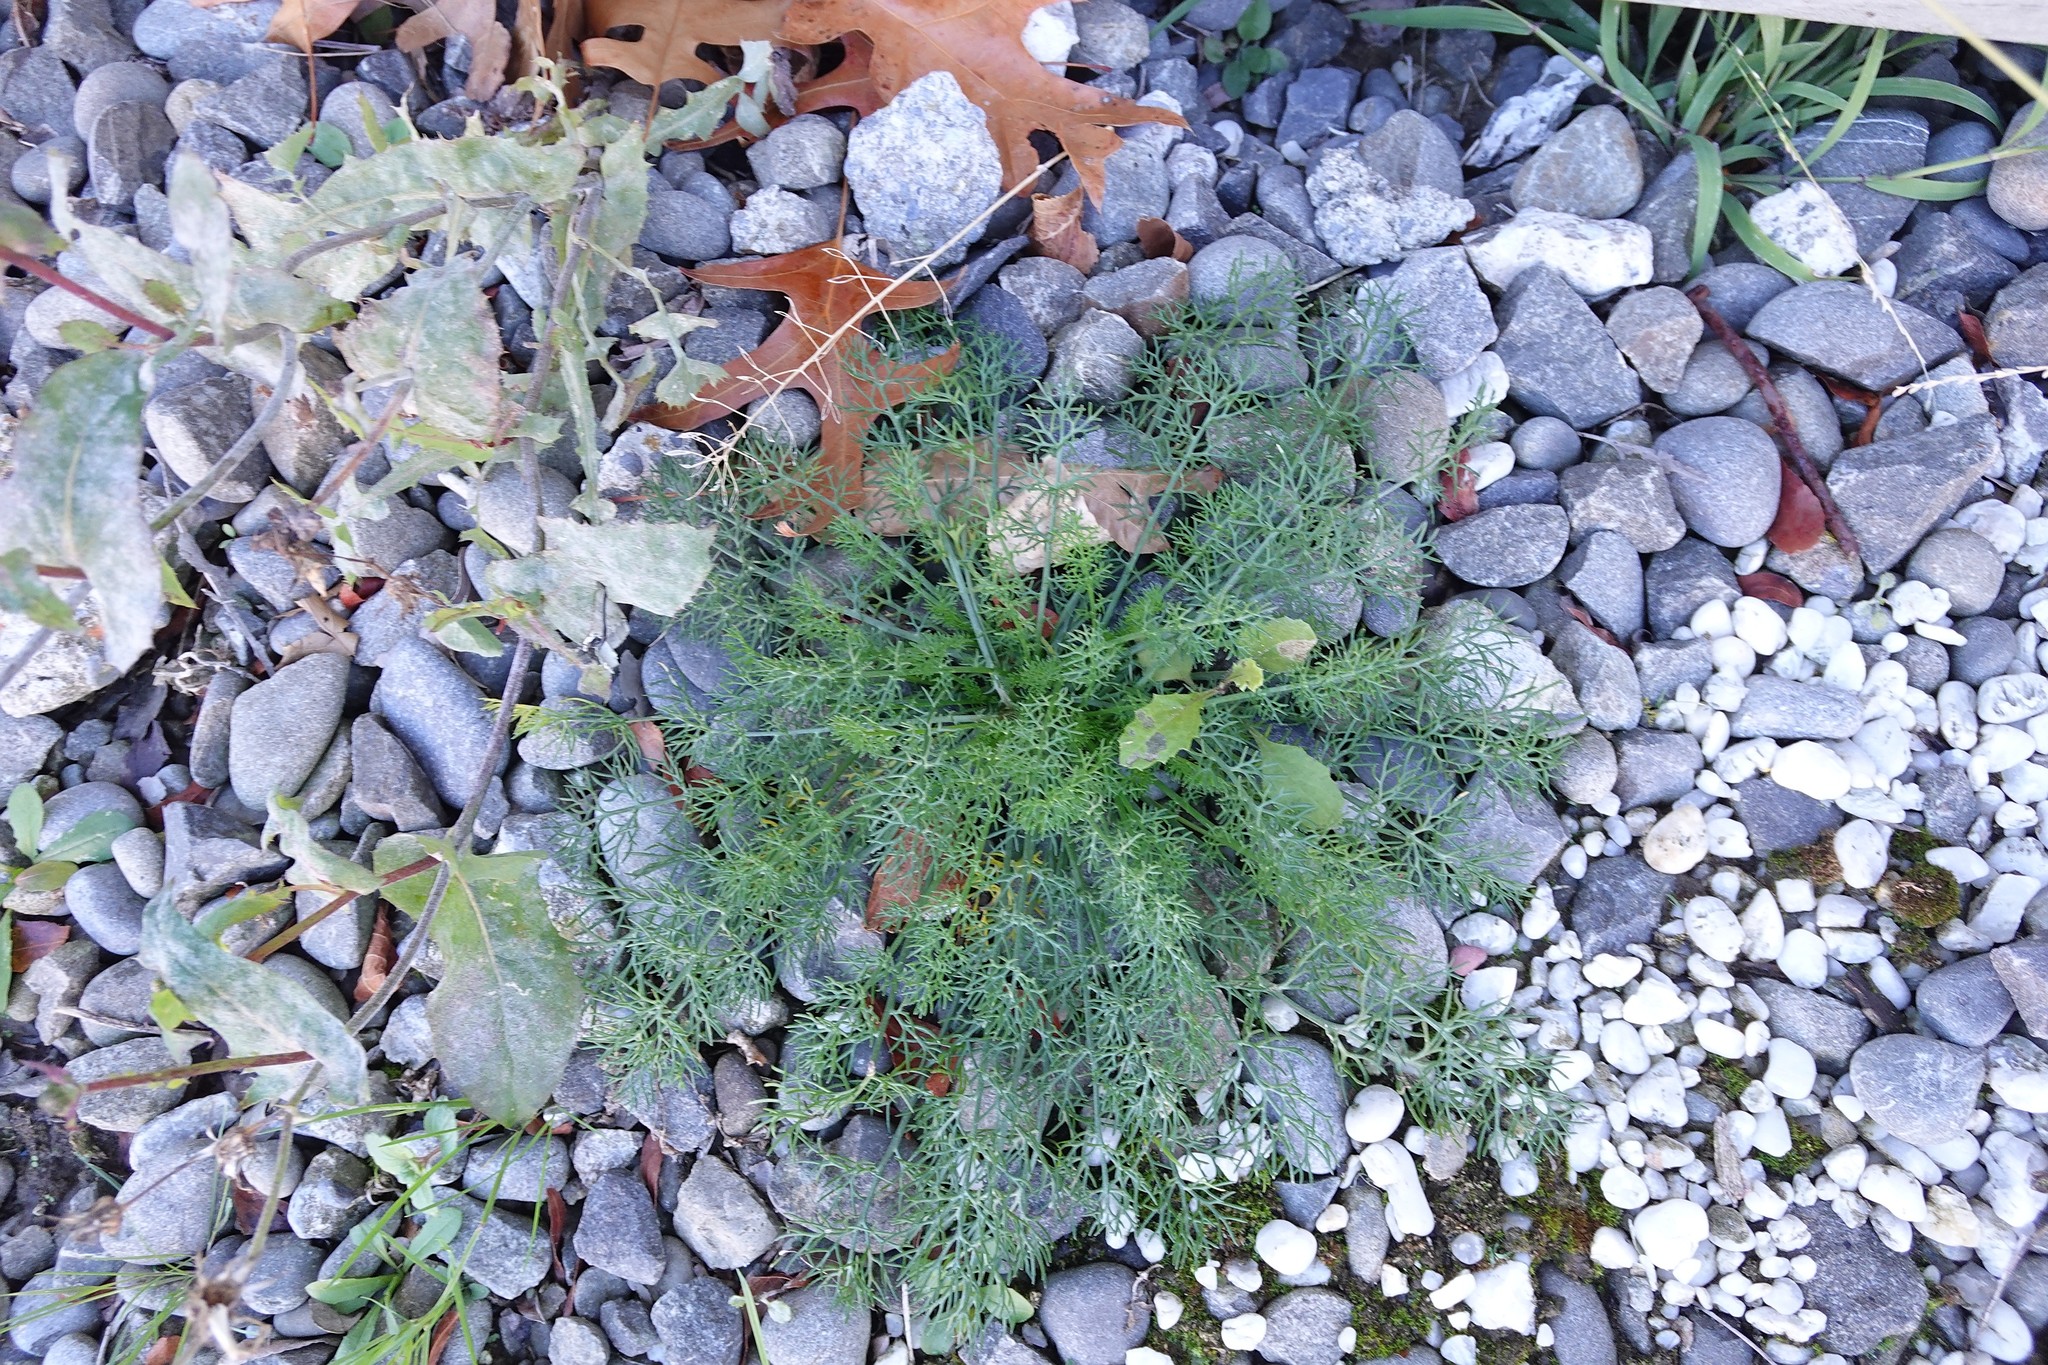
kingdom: Plantae
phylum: Tracheophyta
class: Magnoliopsida
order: Apiales
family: Apiaceae
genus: Foeniculum
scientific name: Foeniculum vulgare
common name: Fennel
